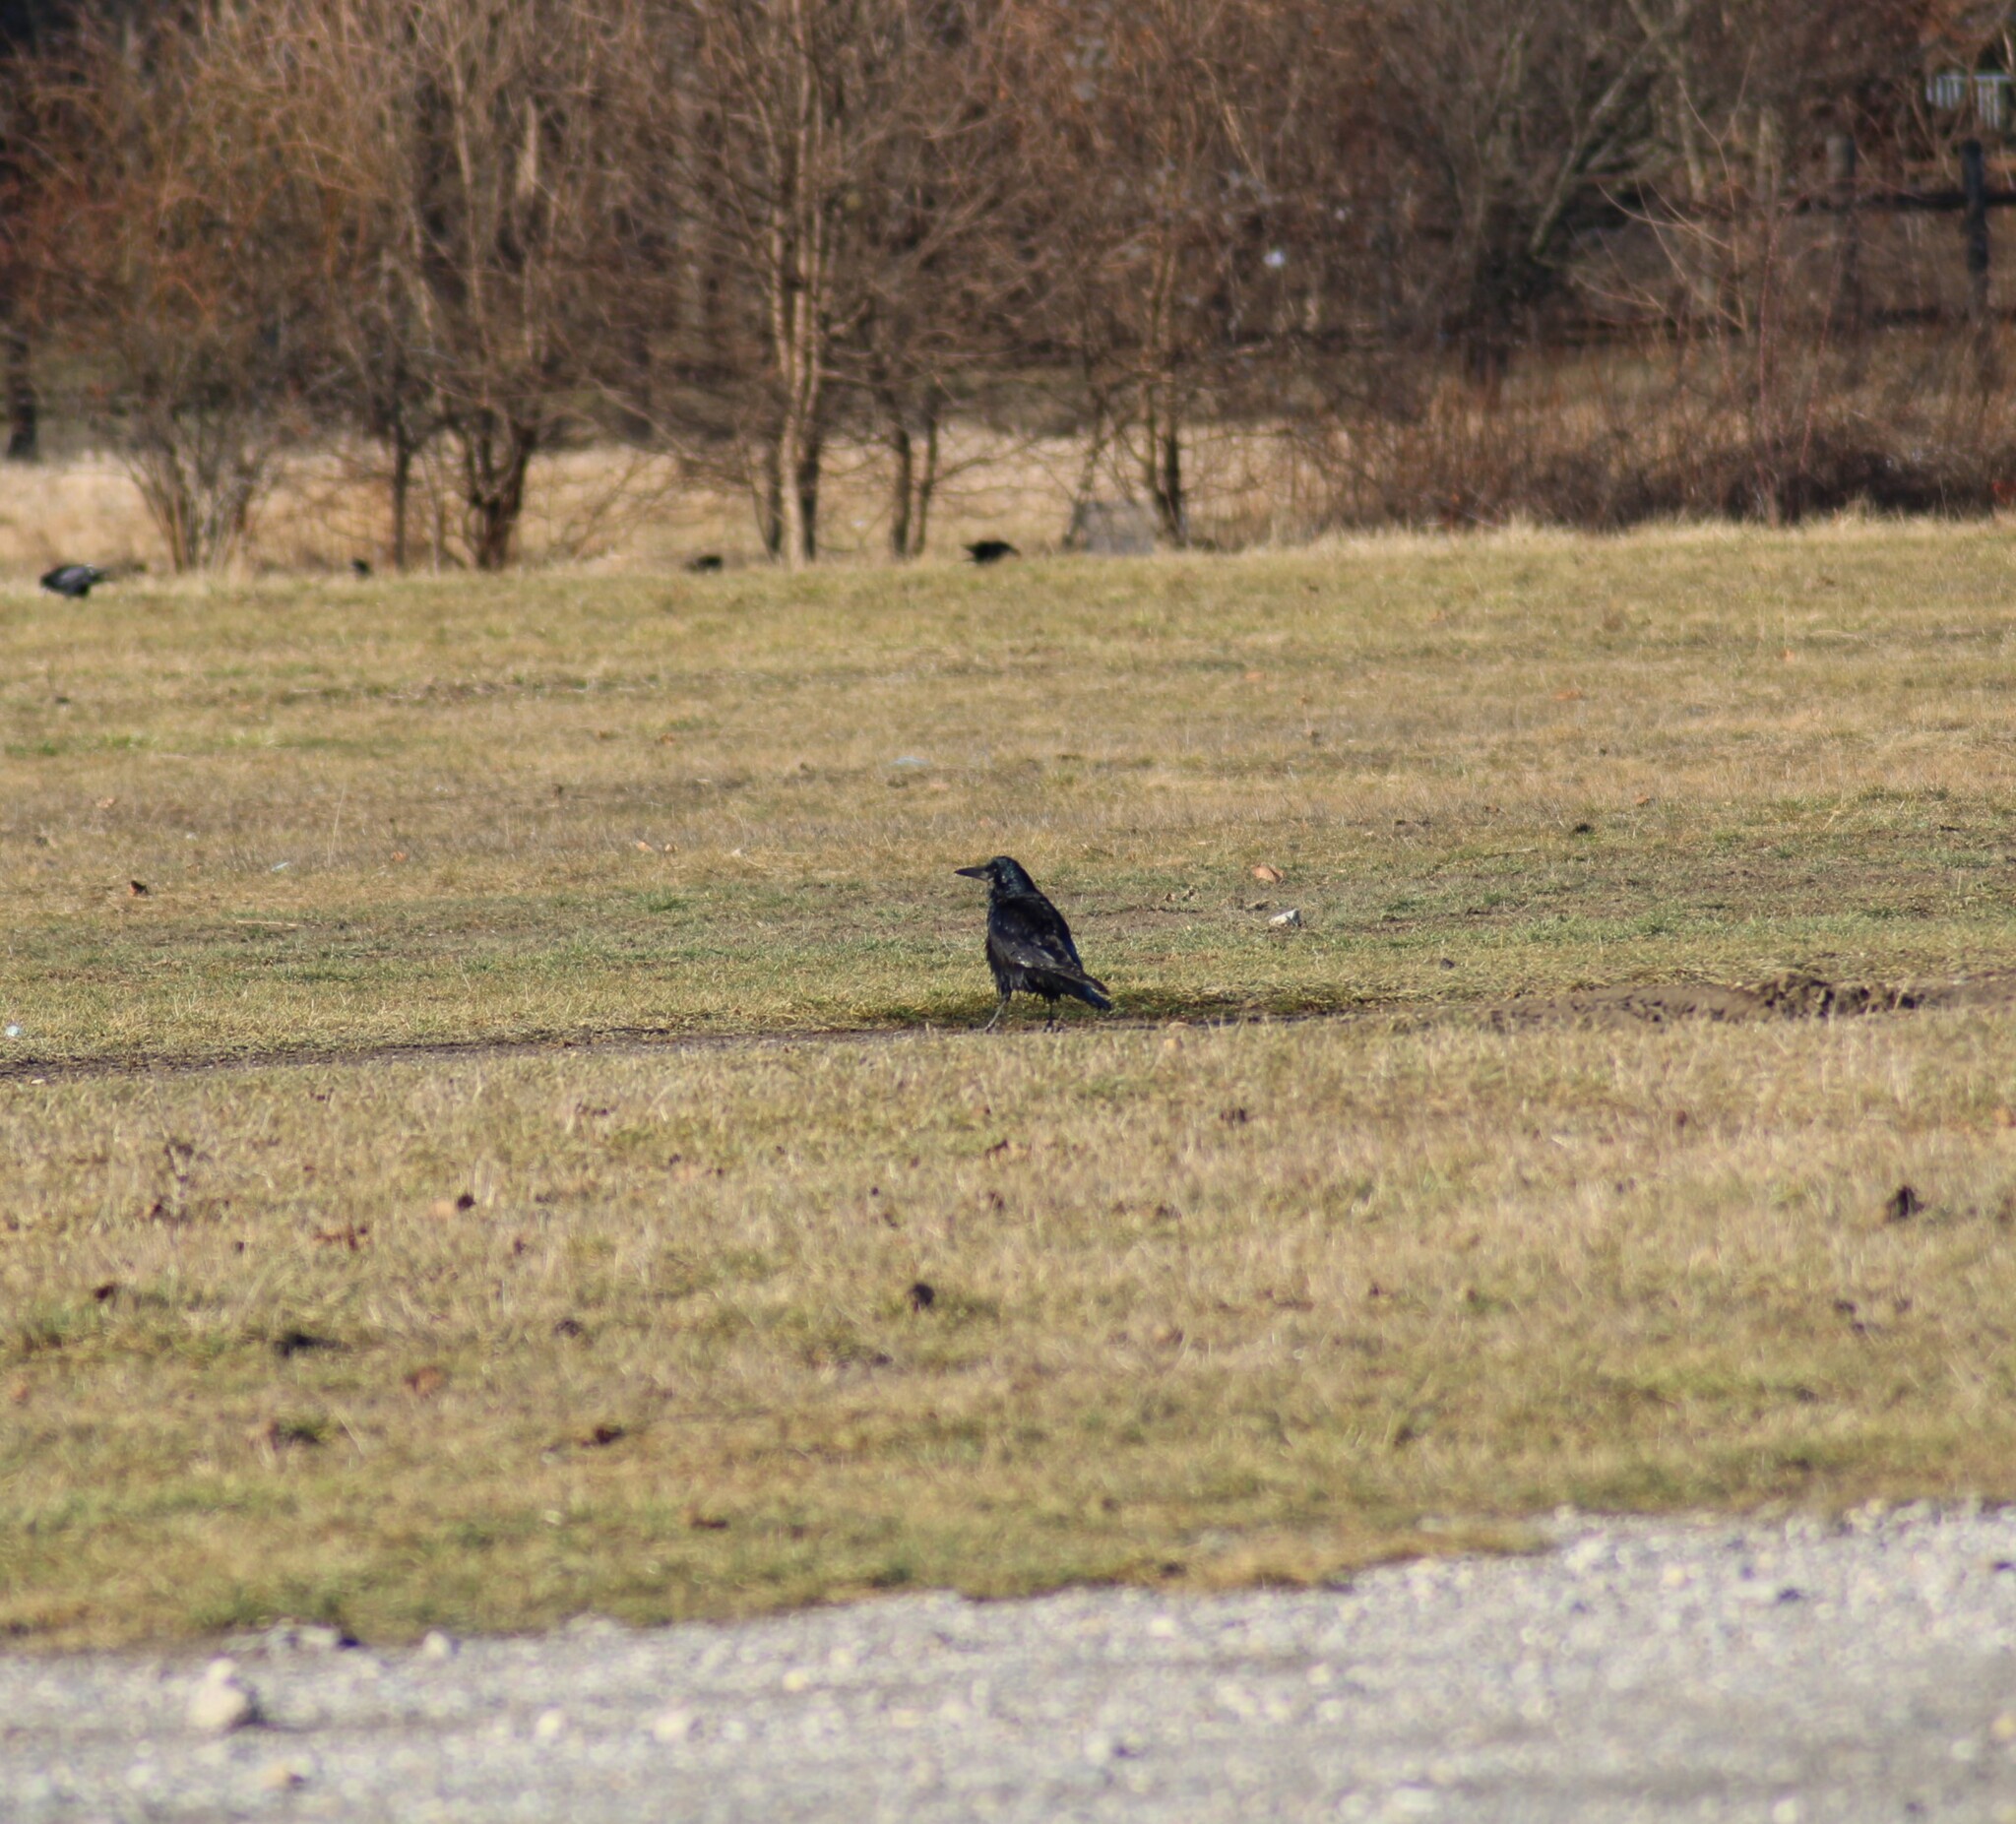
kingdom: Animalia
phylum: Chordata
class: Aves
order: Passeriformes
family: Corvidae
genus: Corvus
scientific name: Corvus frugilegus
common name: Rook
